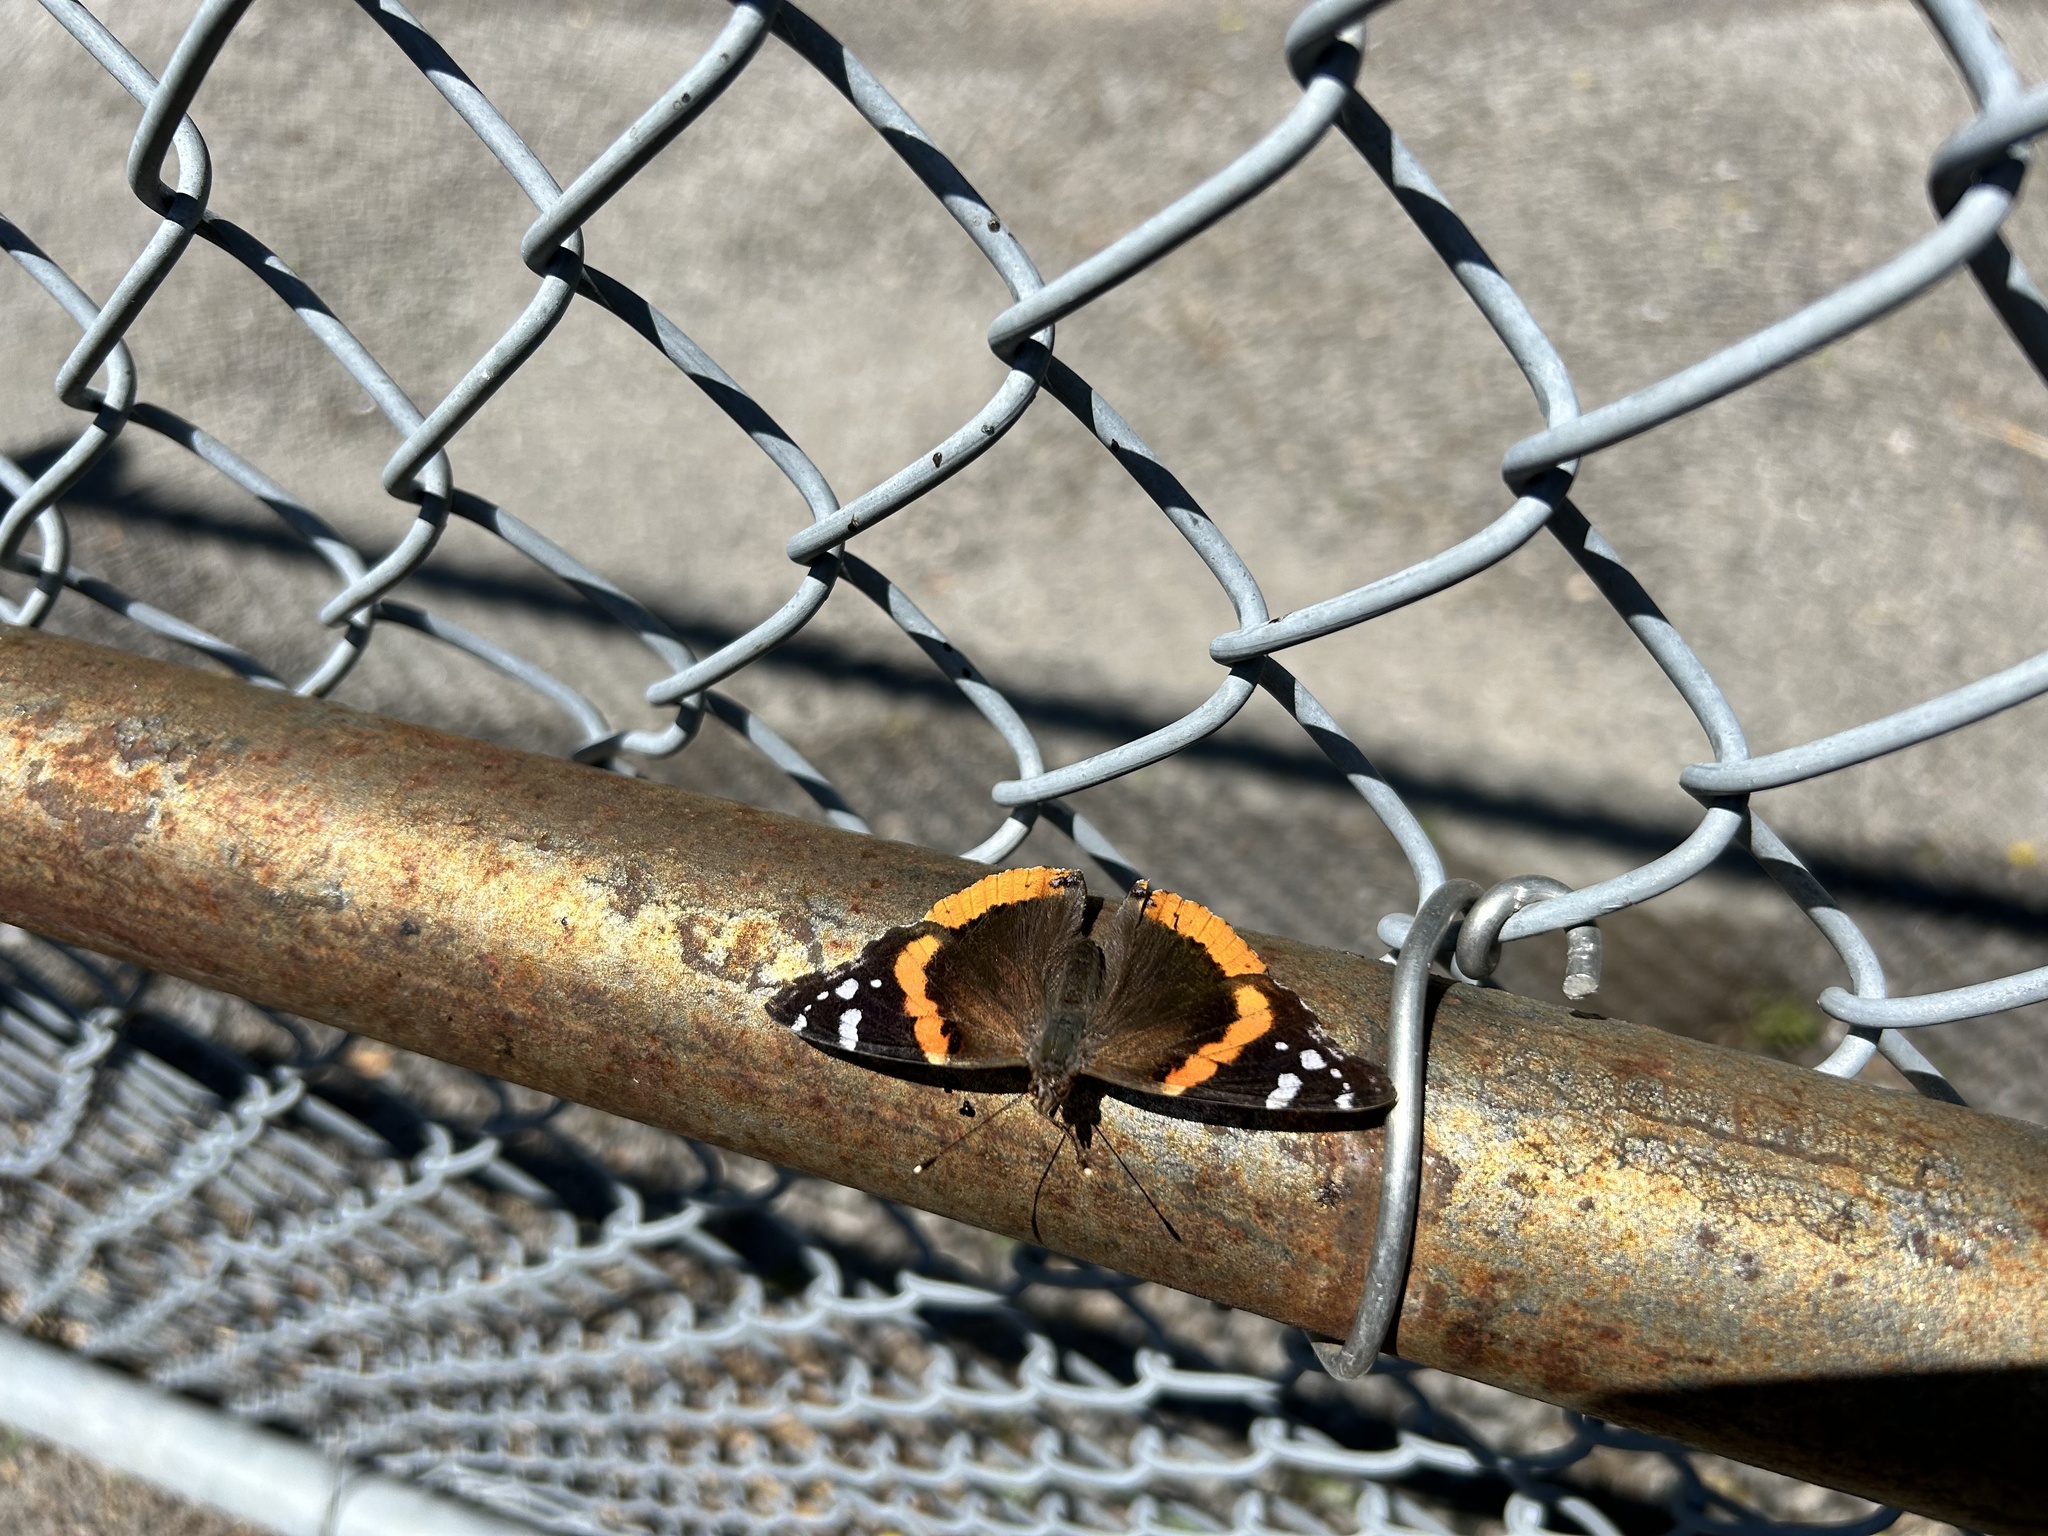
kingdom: Animalia
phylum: Arthropoda
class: Insecta
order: Lepidoptera
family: Nymphalidae
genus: Vanessa
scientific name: Vanessa atalanta
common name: Red admiral
